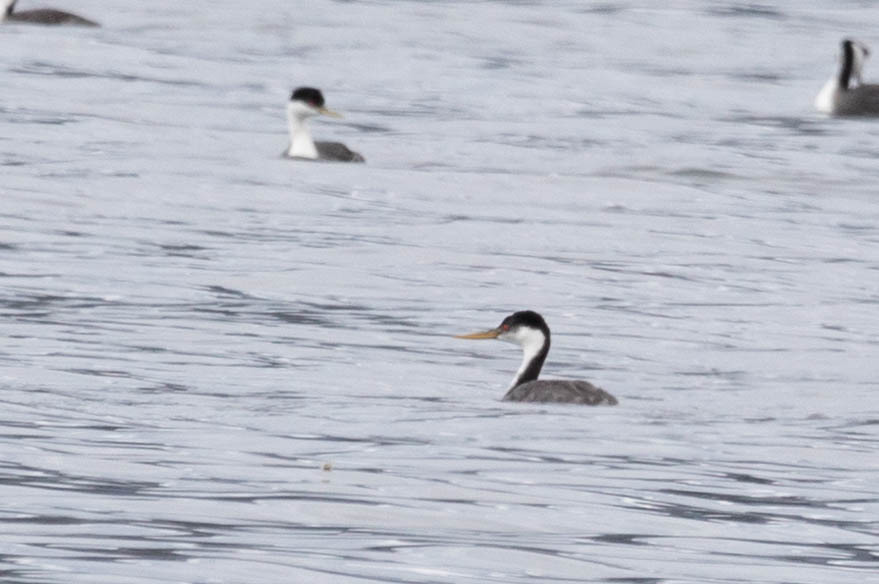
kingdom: Animalia
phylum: Chordata
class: Aves
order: Podicipediformes
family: Podicipedidae
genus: Aechmophorus
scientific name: Aechmophorus occidentalis
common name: Western grebe
